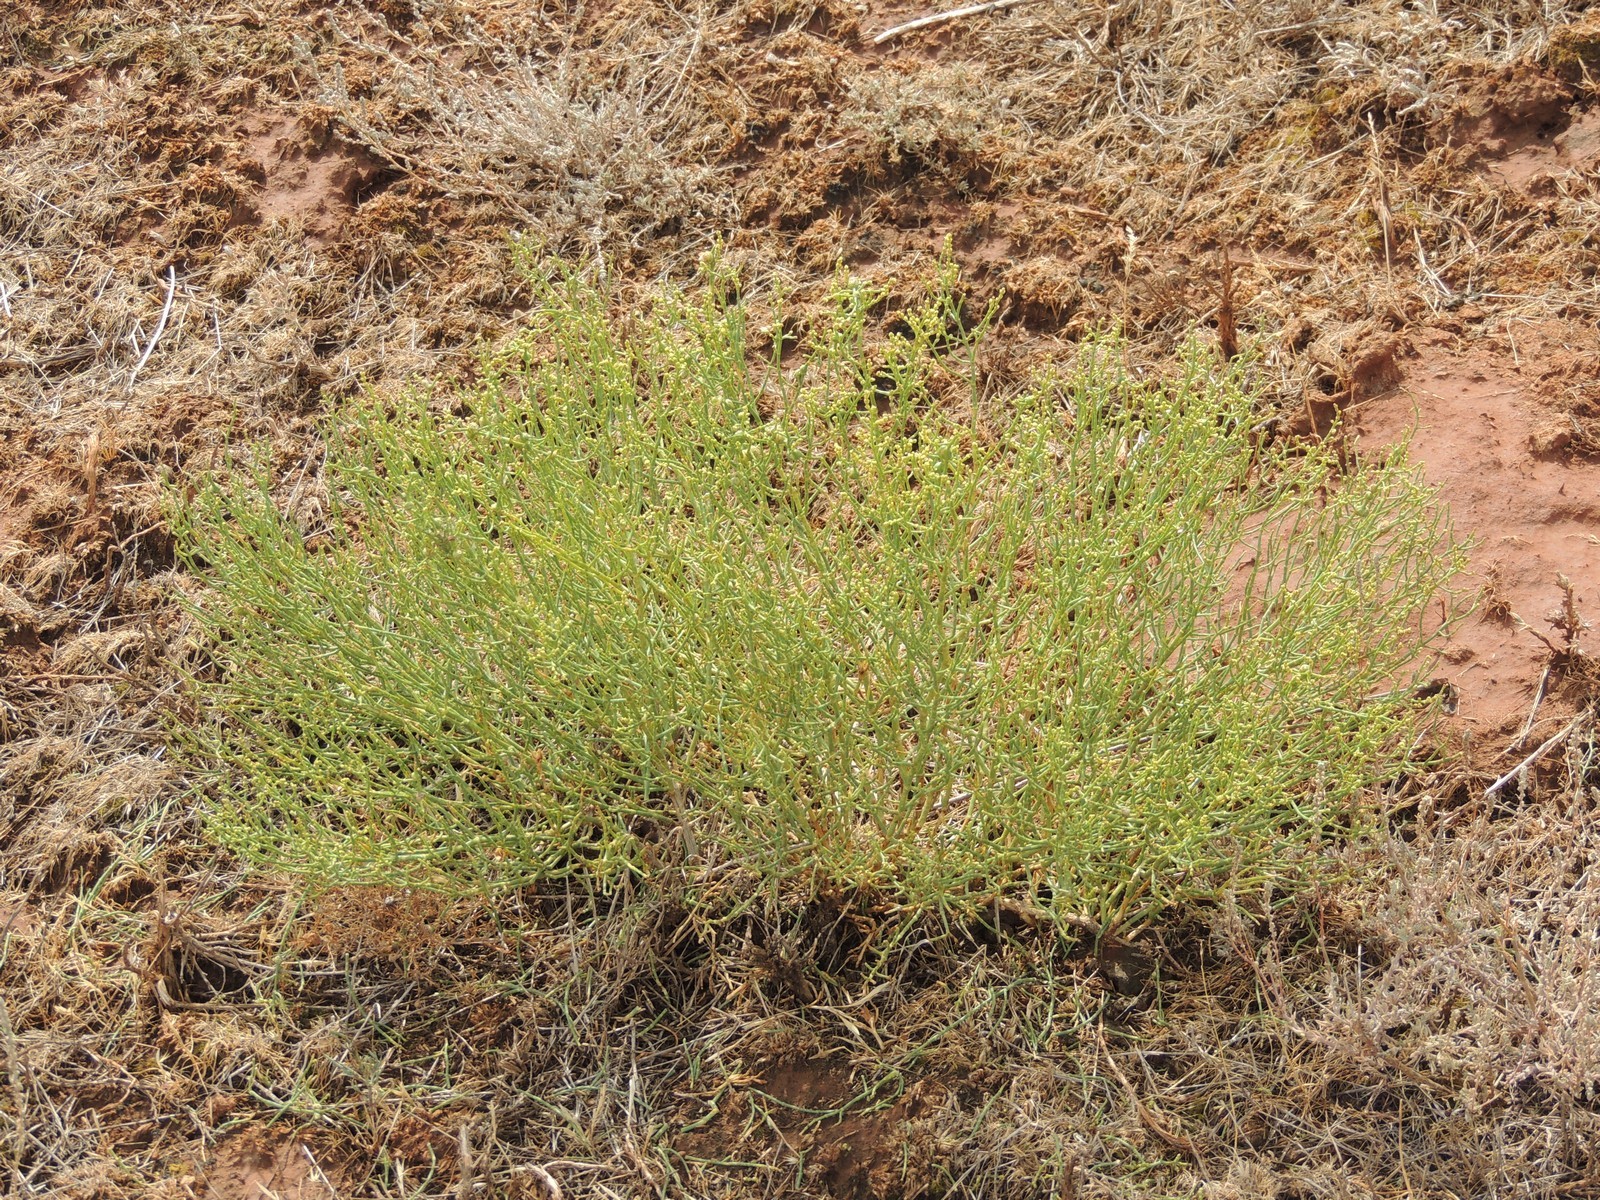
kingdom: Plantae
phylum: Tracheophyta
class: Magnoliopsida
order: Caryophyllales
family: Amaranthaceae
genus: Anabasis
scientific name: Anabasis aphylla
